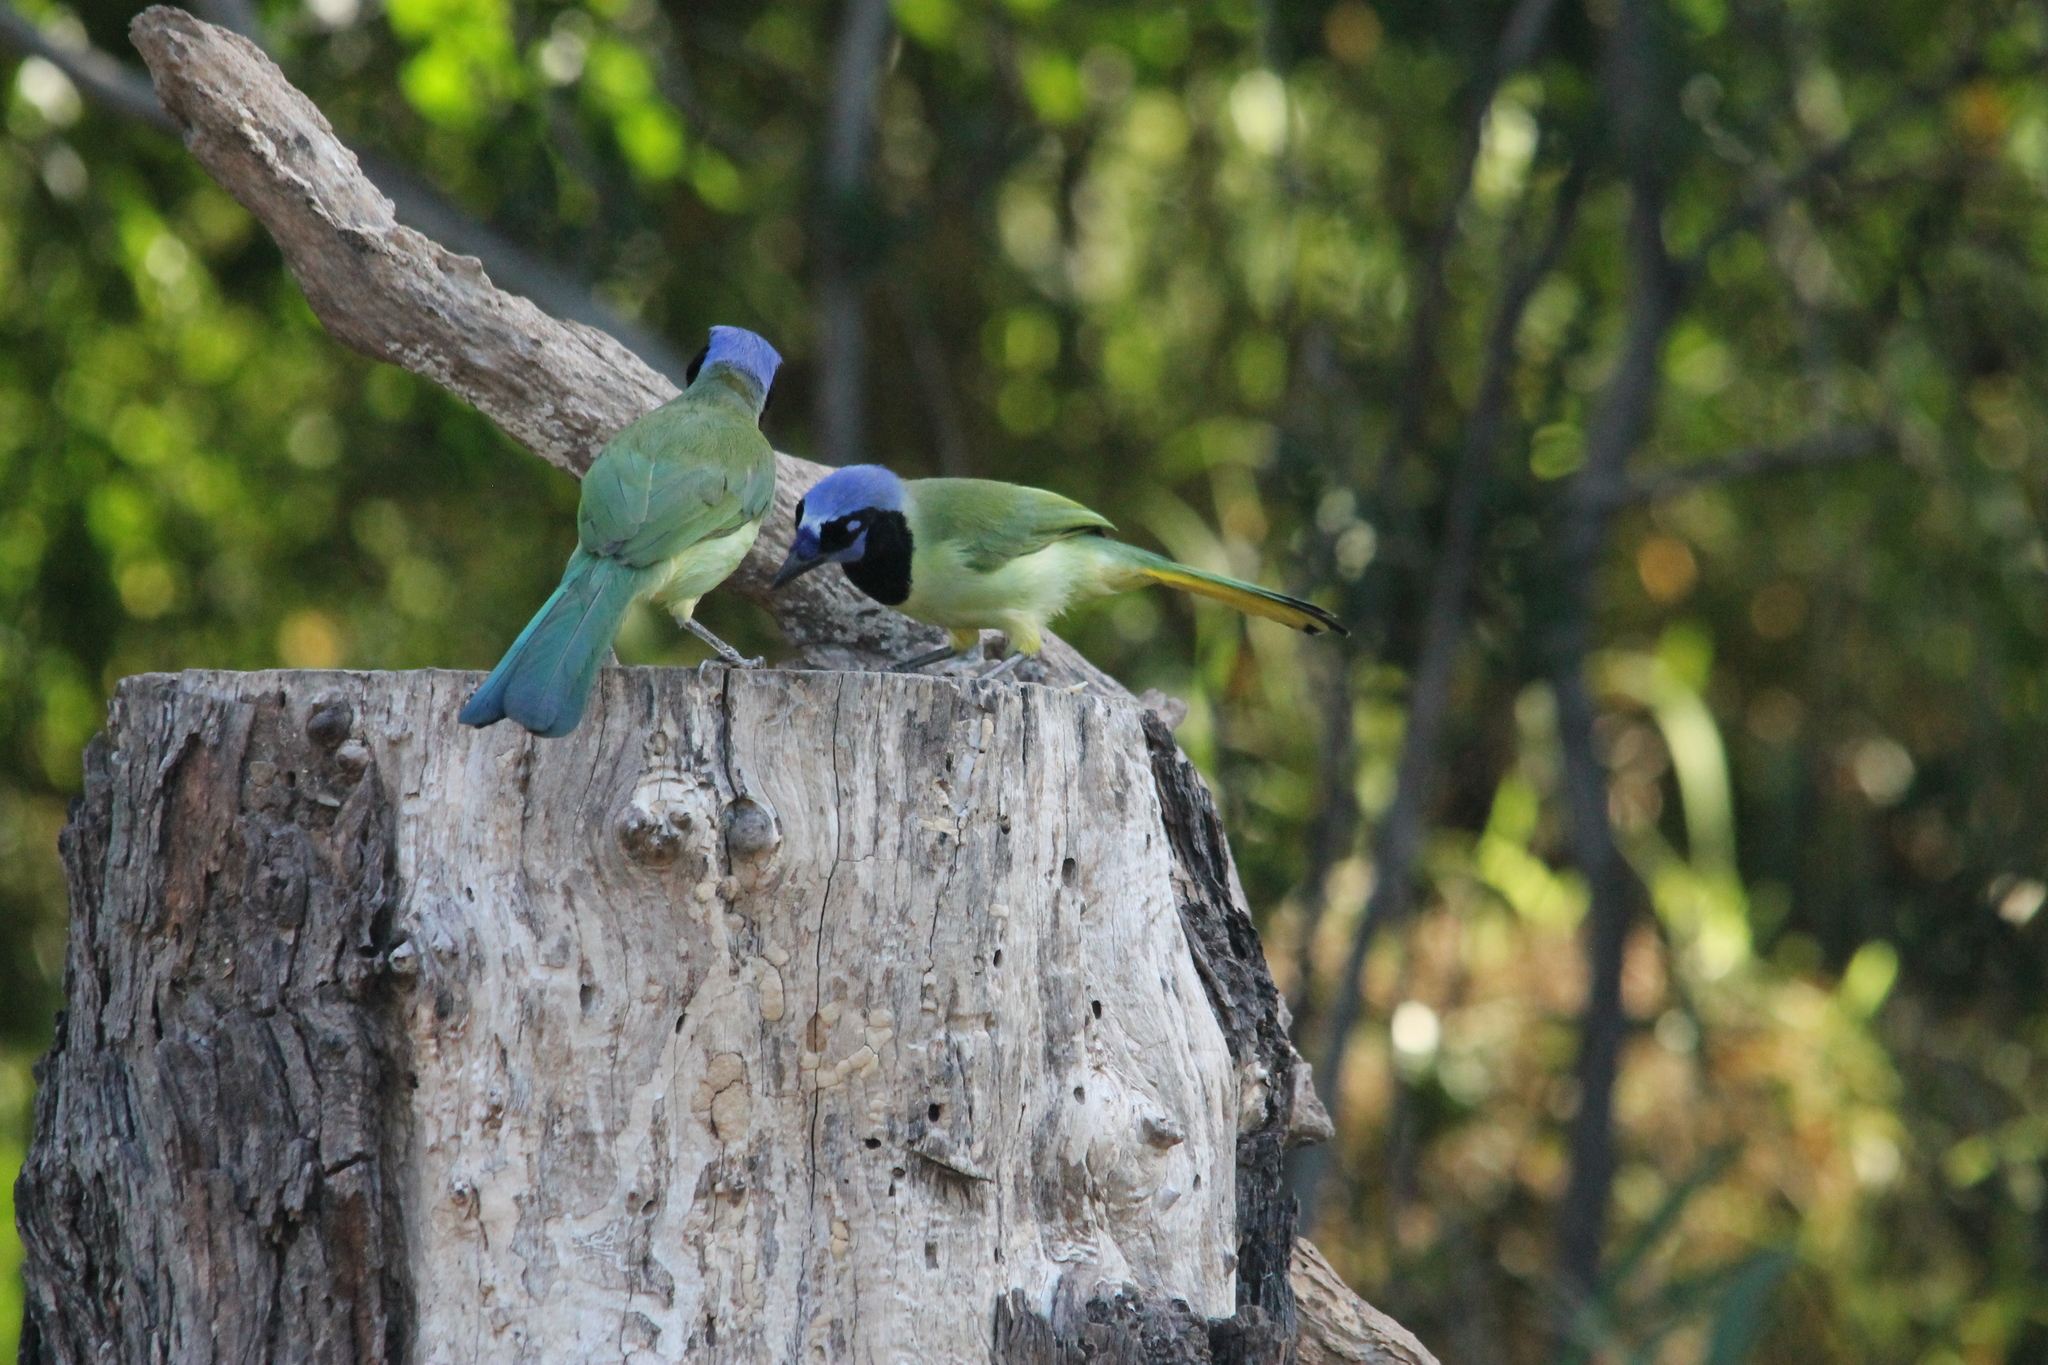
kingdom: Animalia
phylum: Chordata
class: Aves
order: Passeriformes
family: Corvidae
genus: Cyanocorax
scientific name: Cyanocorax yncas
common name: Green jay
